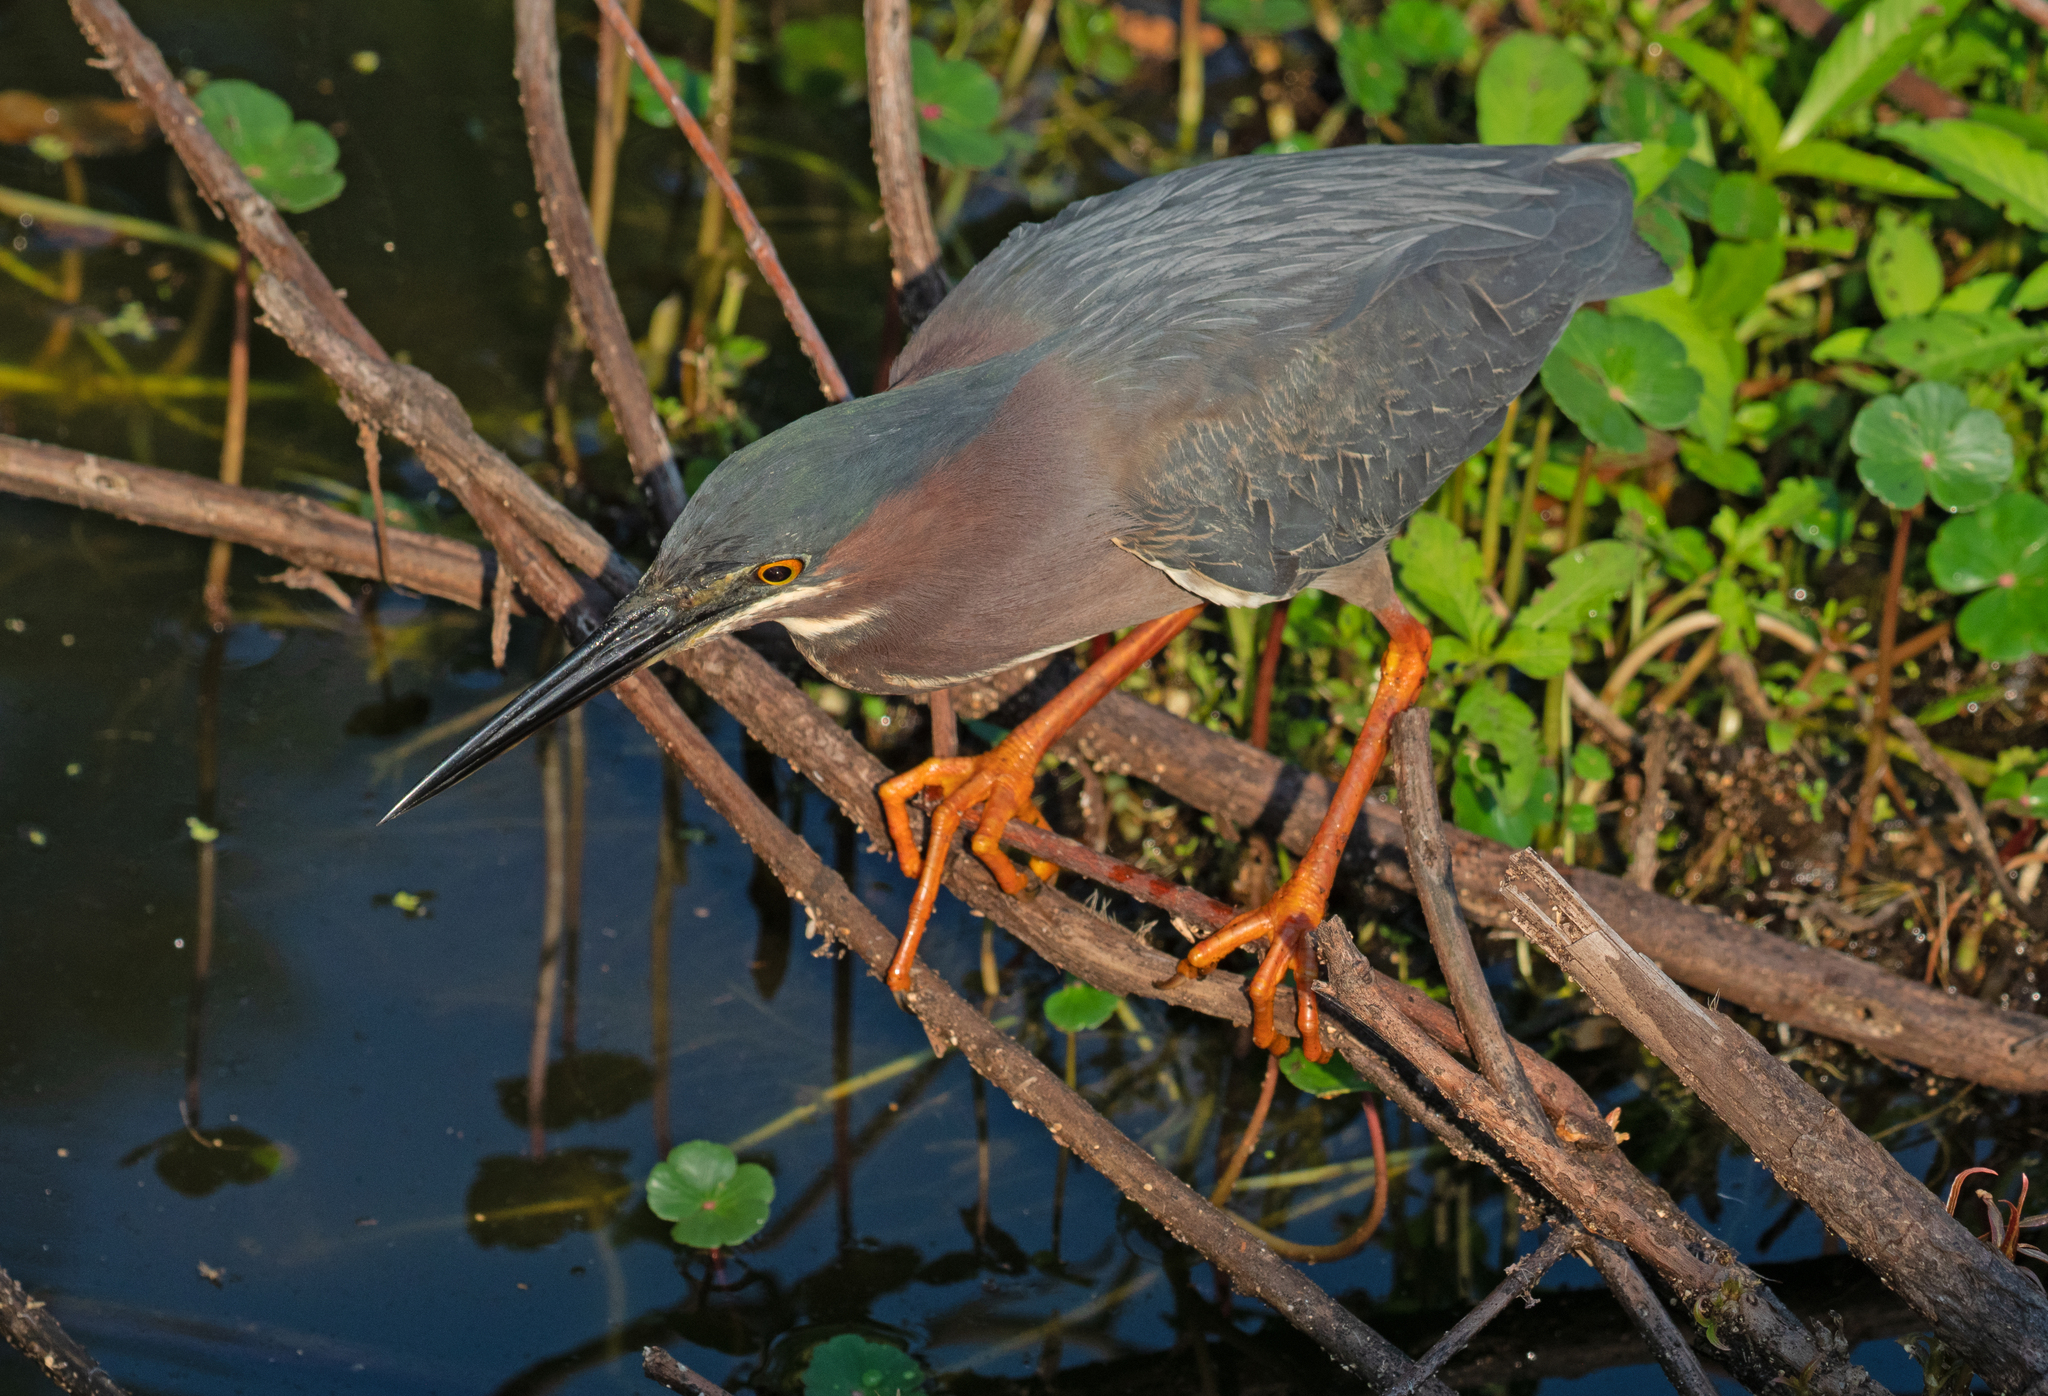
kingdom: Animalia
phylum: Chordata
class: Aves
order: Pelecaniformes
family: Ardeidae
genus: Butorides
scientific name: Butorides virescens
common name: Green heron
